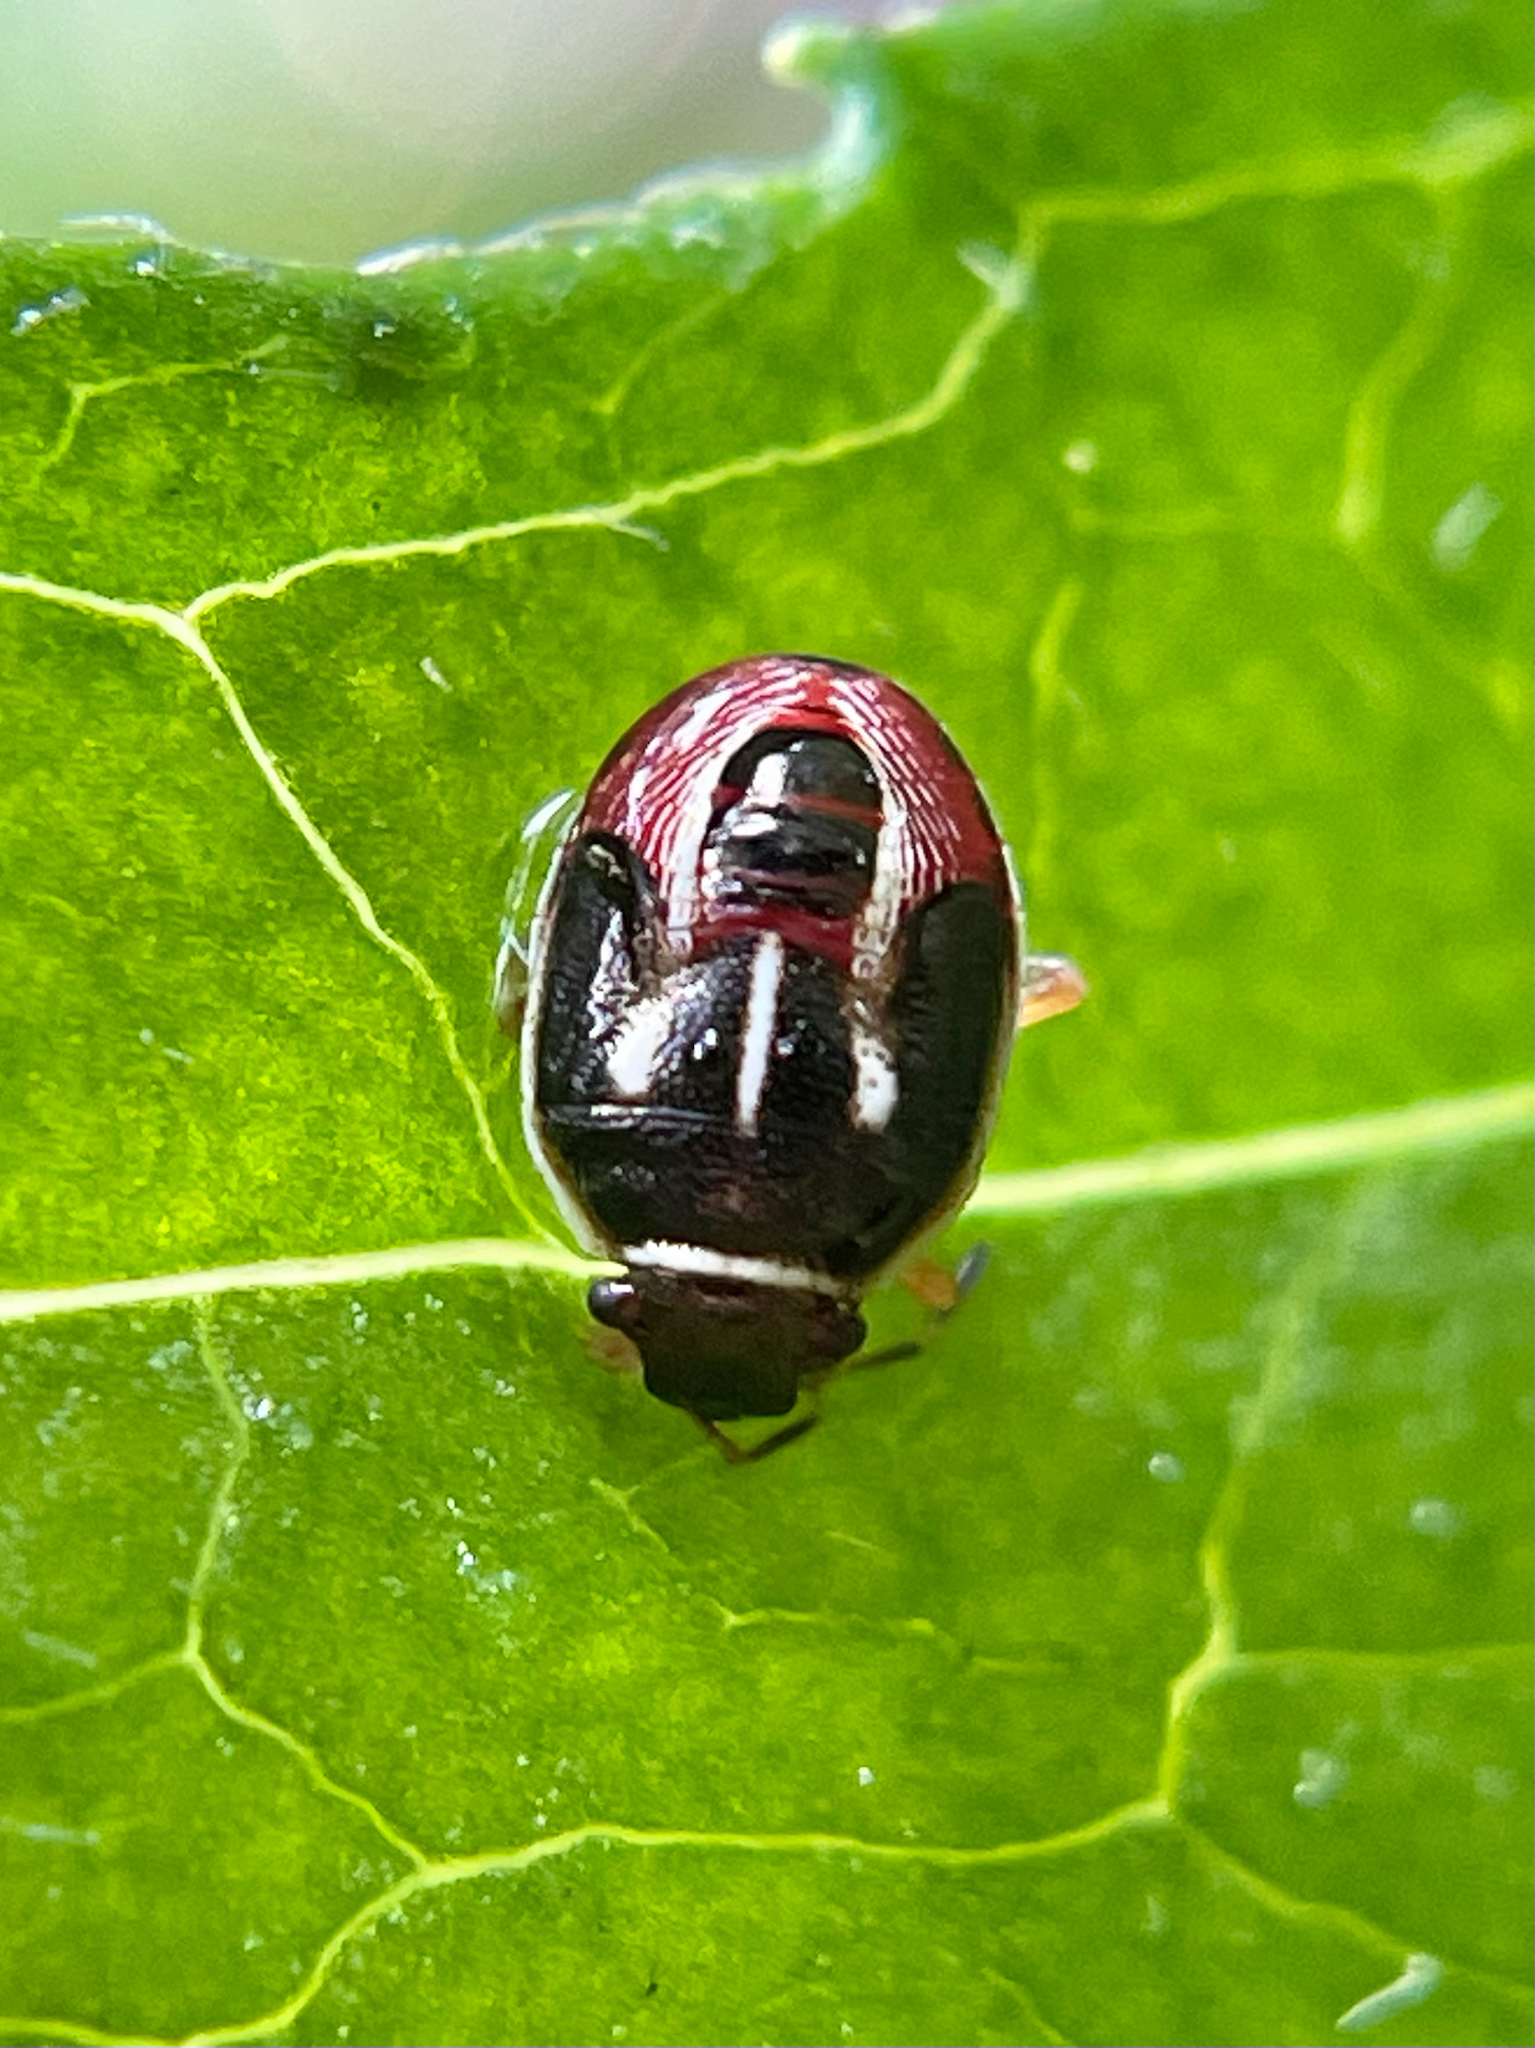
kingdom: Animalia
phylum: Arthropoda
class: Insecta
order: Hemiptera
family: Pentatomidae
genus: Mormidea
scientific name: Mormidea lugens
